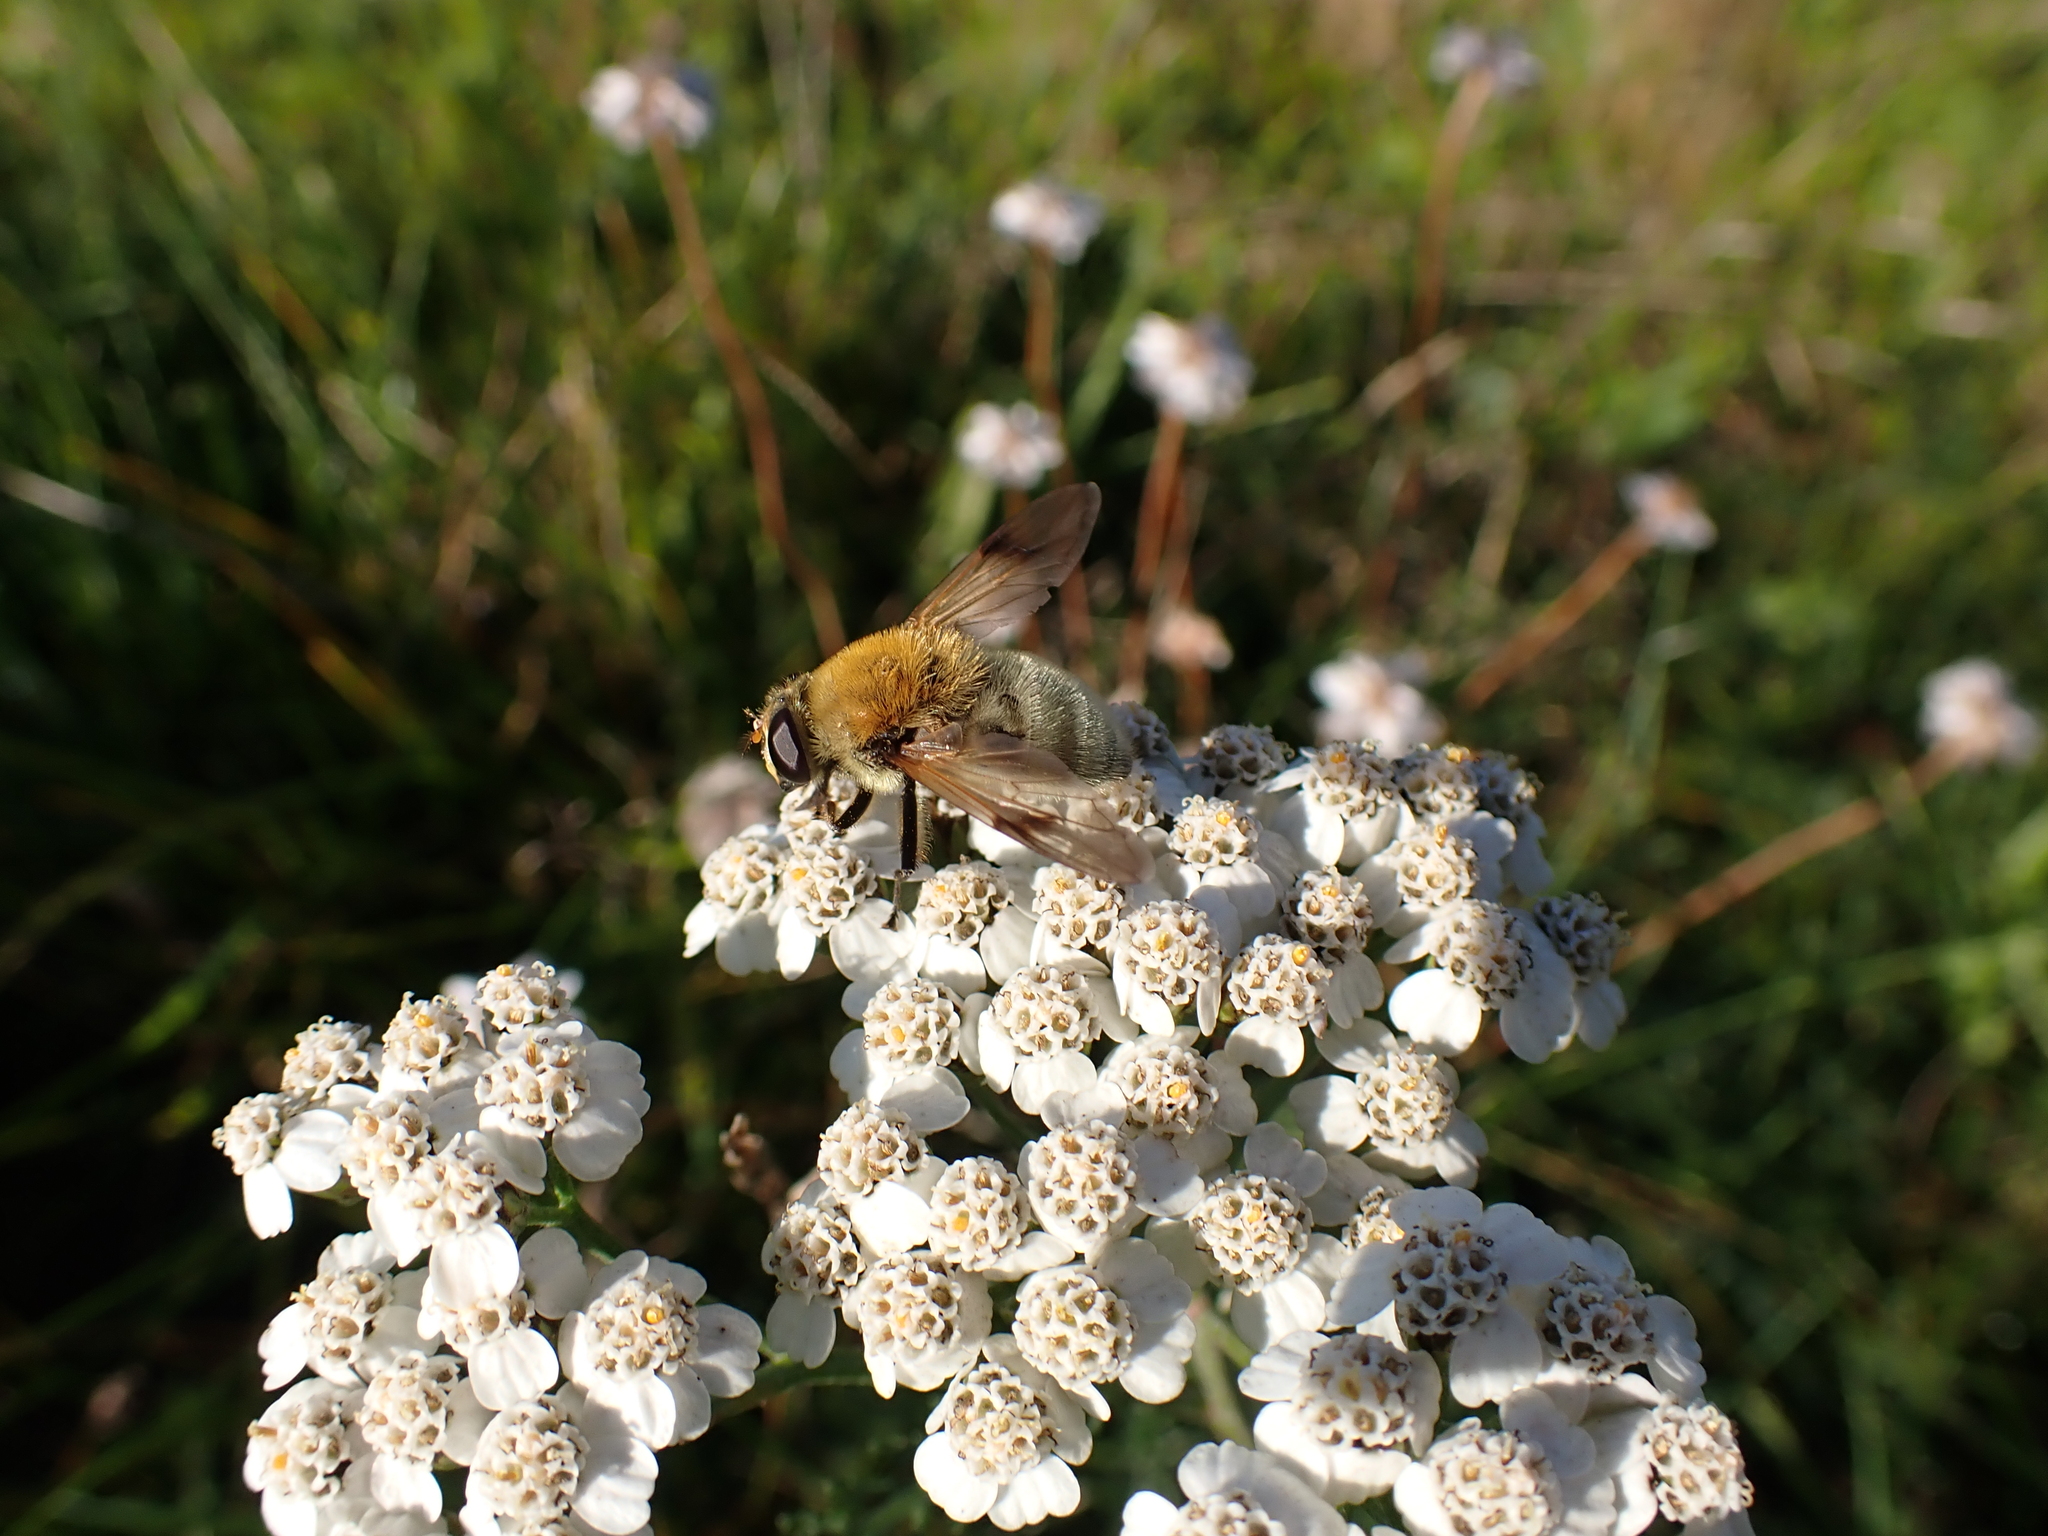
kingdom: Animalia
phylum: Arthropoda
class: Insecta
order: Diptera
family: Syrphidae
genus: Sericomyia
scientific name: Sericomyia superbiens
